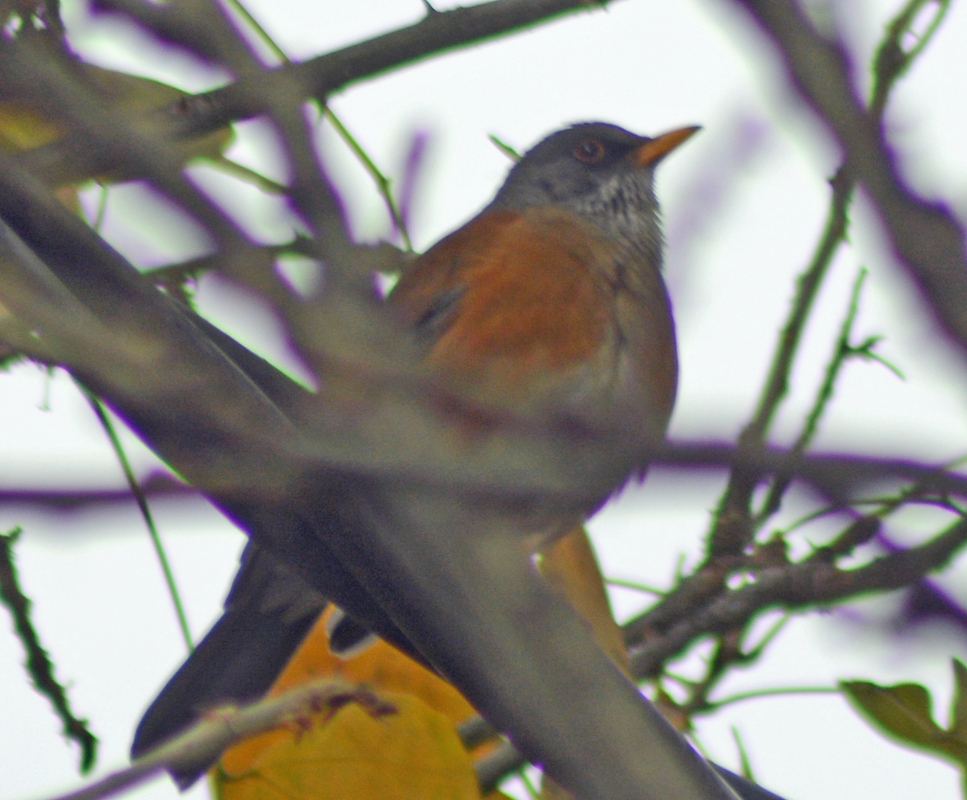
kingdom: Animalia
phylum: Chordata
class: Aves
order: Passeriformes
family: Turdidae
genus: Turdus
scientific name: Turdus rufopalliatus
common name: Rufous-backed robin
